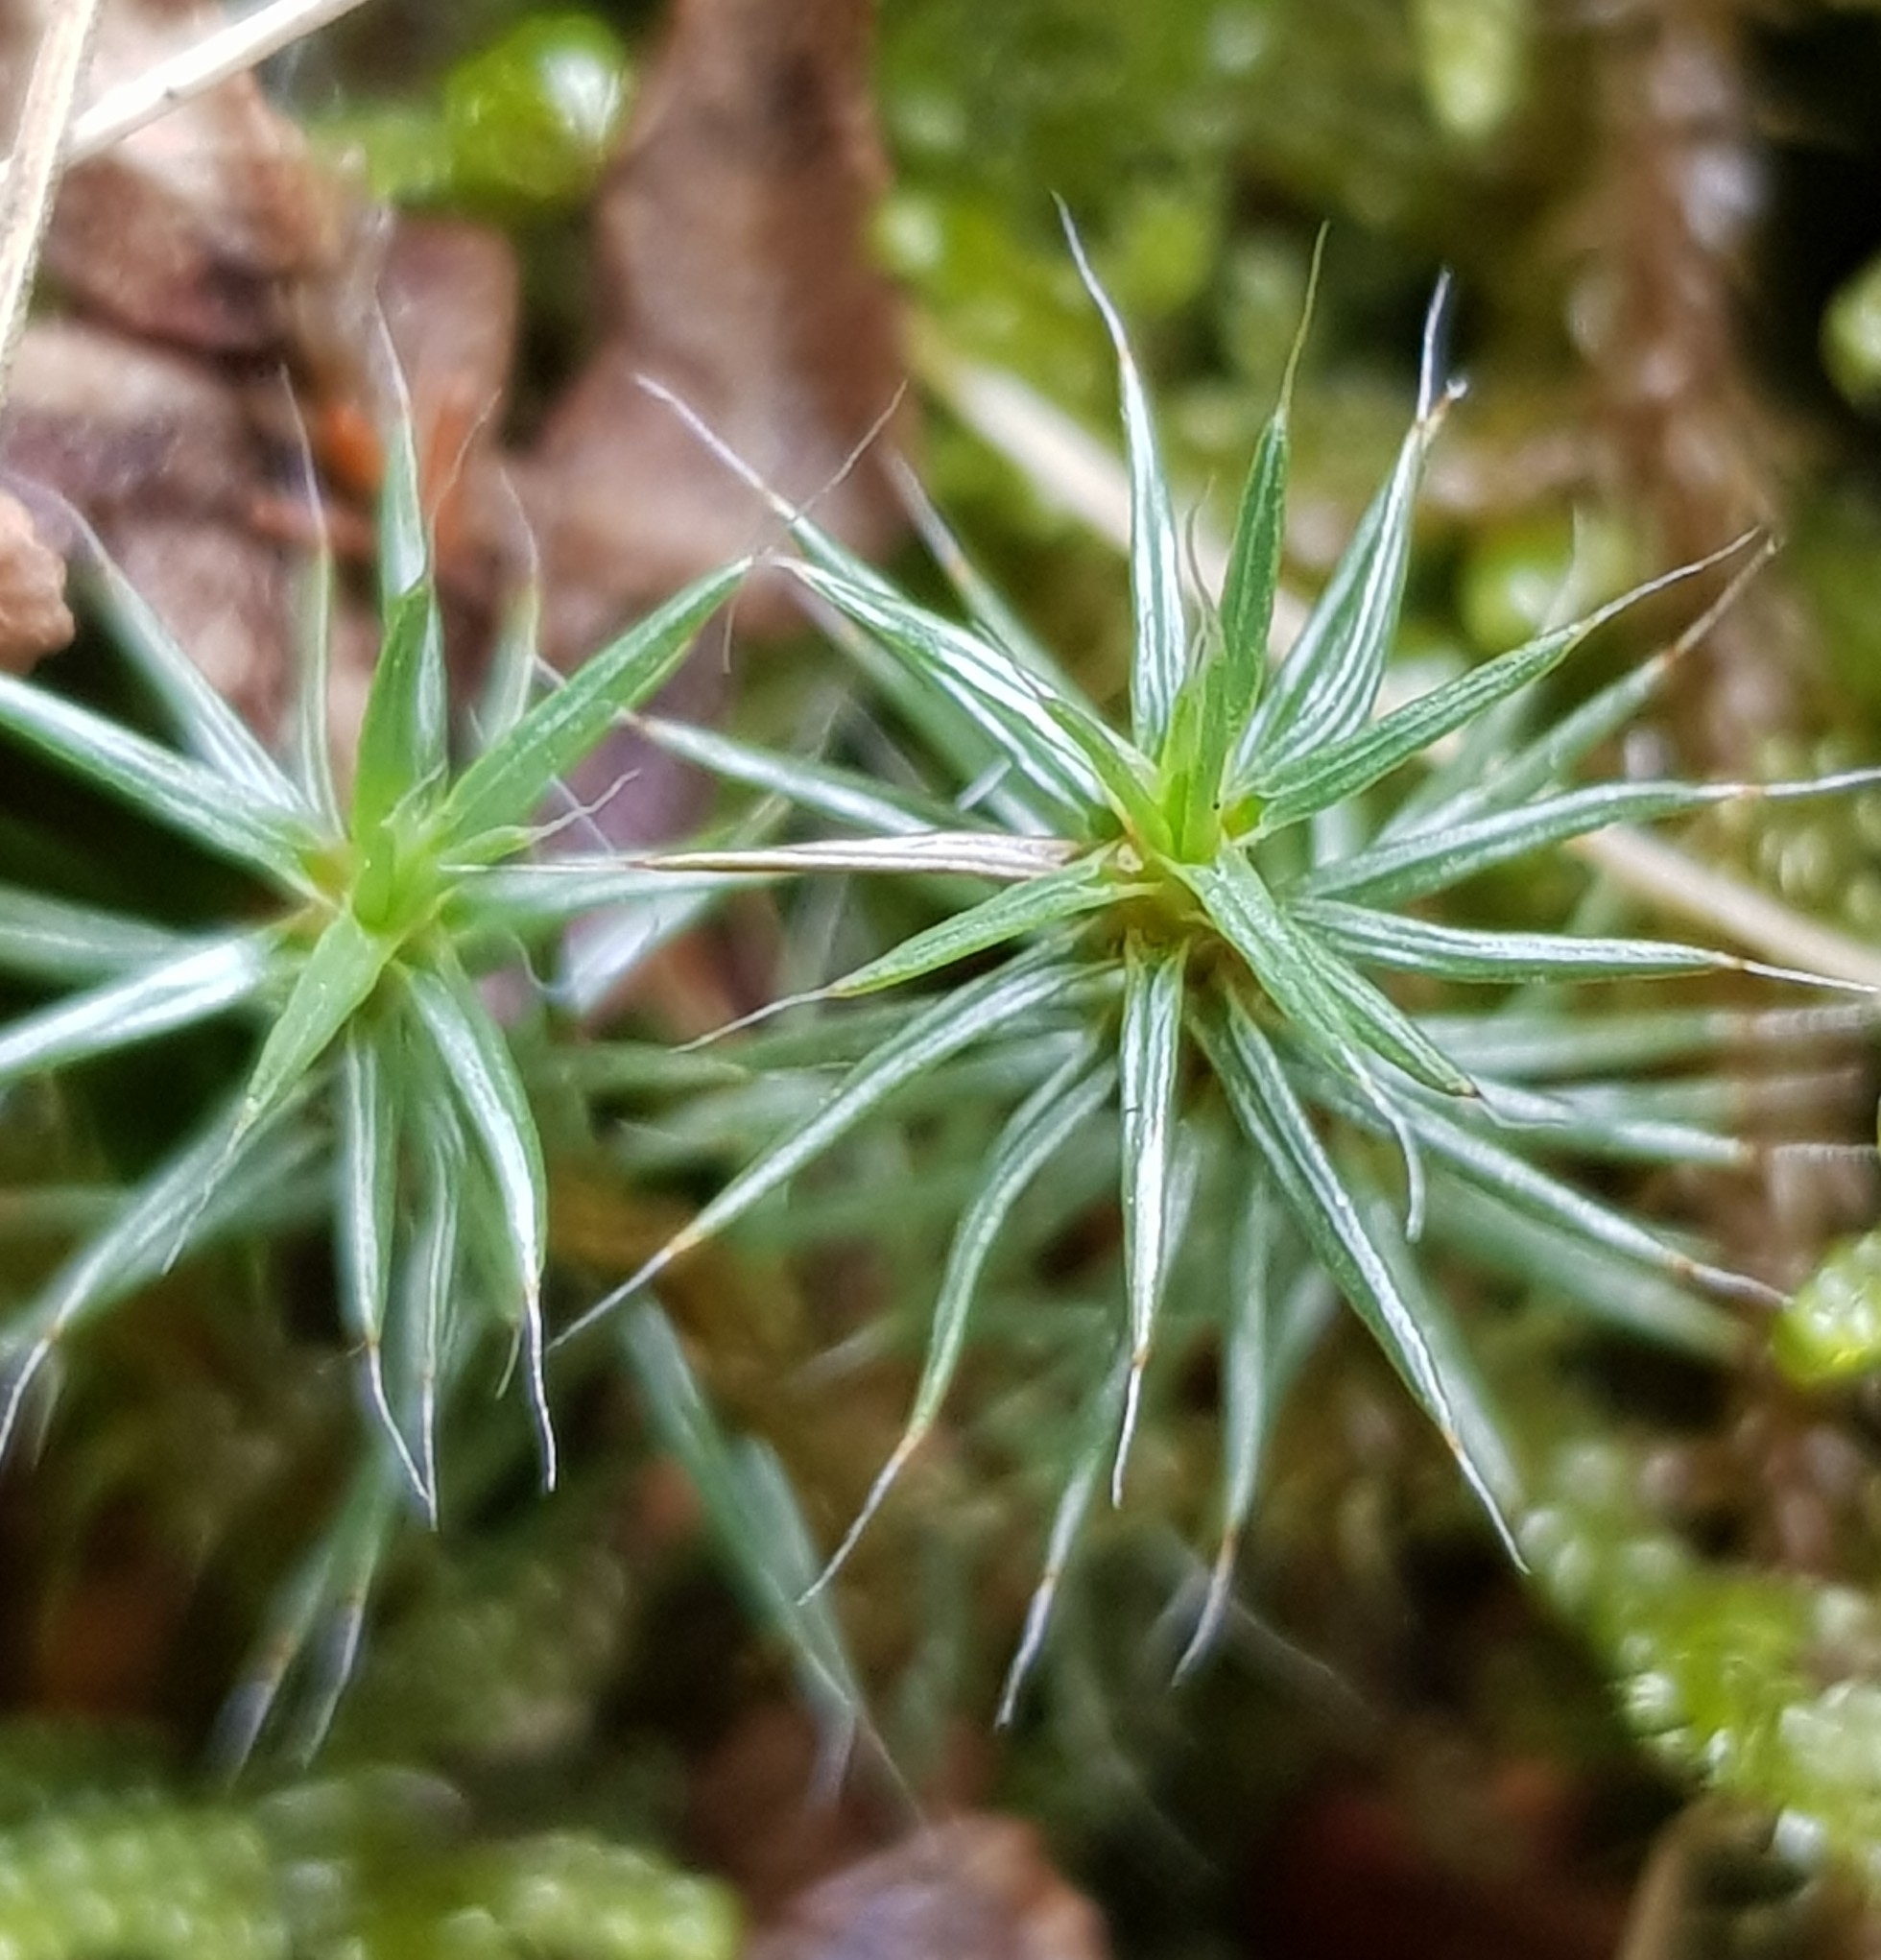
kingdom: Plantae
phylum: Bryophyta
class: Polytrichopsida
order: Polytrichales
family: Polytrichaceae
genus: Polytrichum
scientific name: Polytrichum piliferum
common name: Bristly haircap
